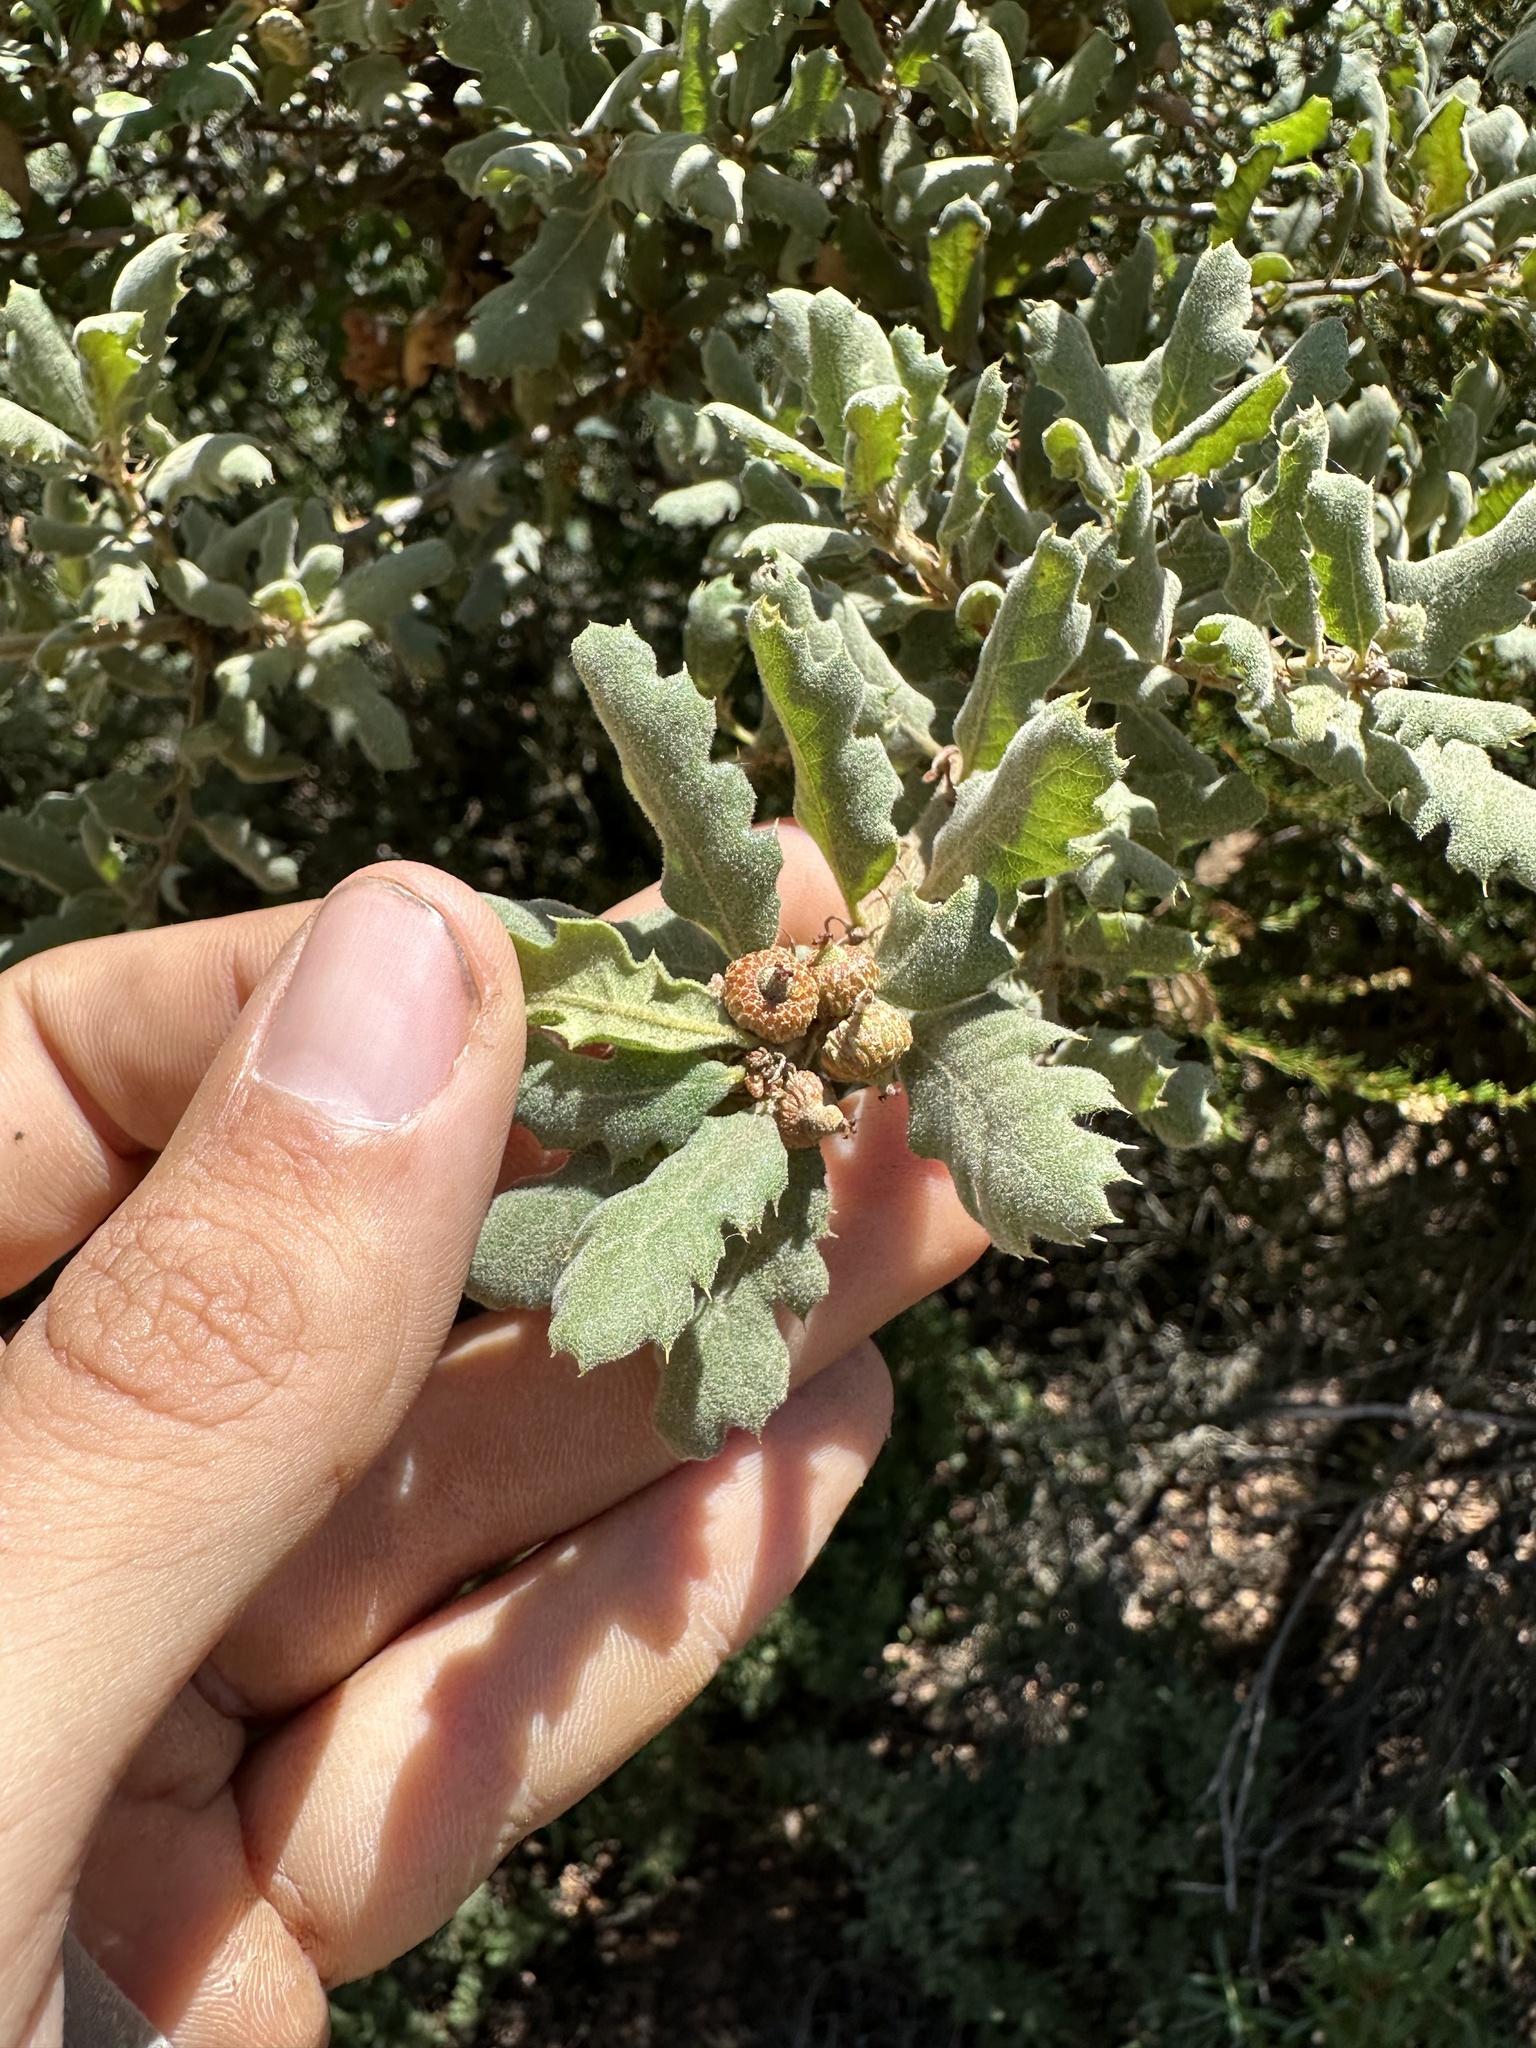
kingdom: Plantae
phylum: Tracheophyta
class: Magnoliopsida
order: Fagales
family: Fagaceae
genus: Quercus
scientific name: Quercus durata
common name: Leather oak
